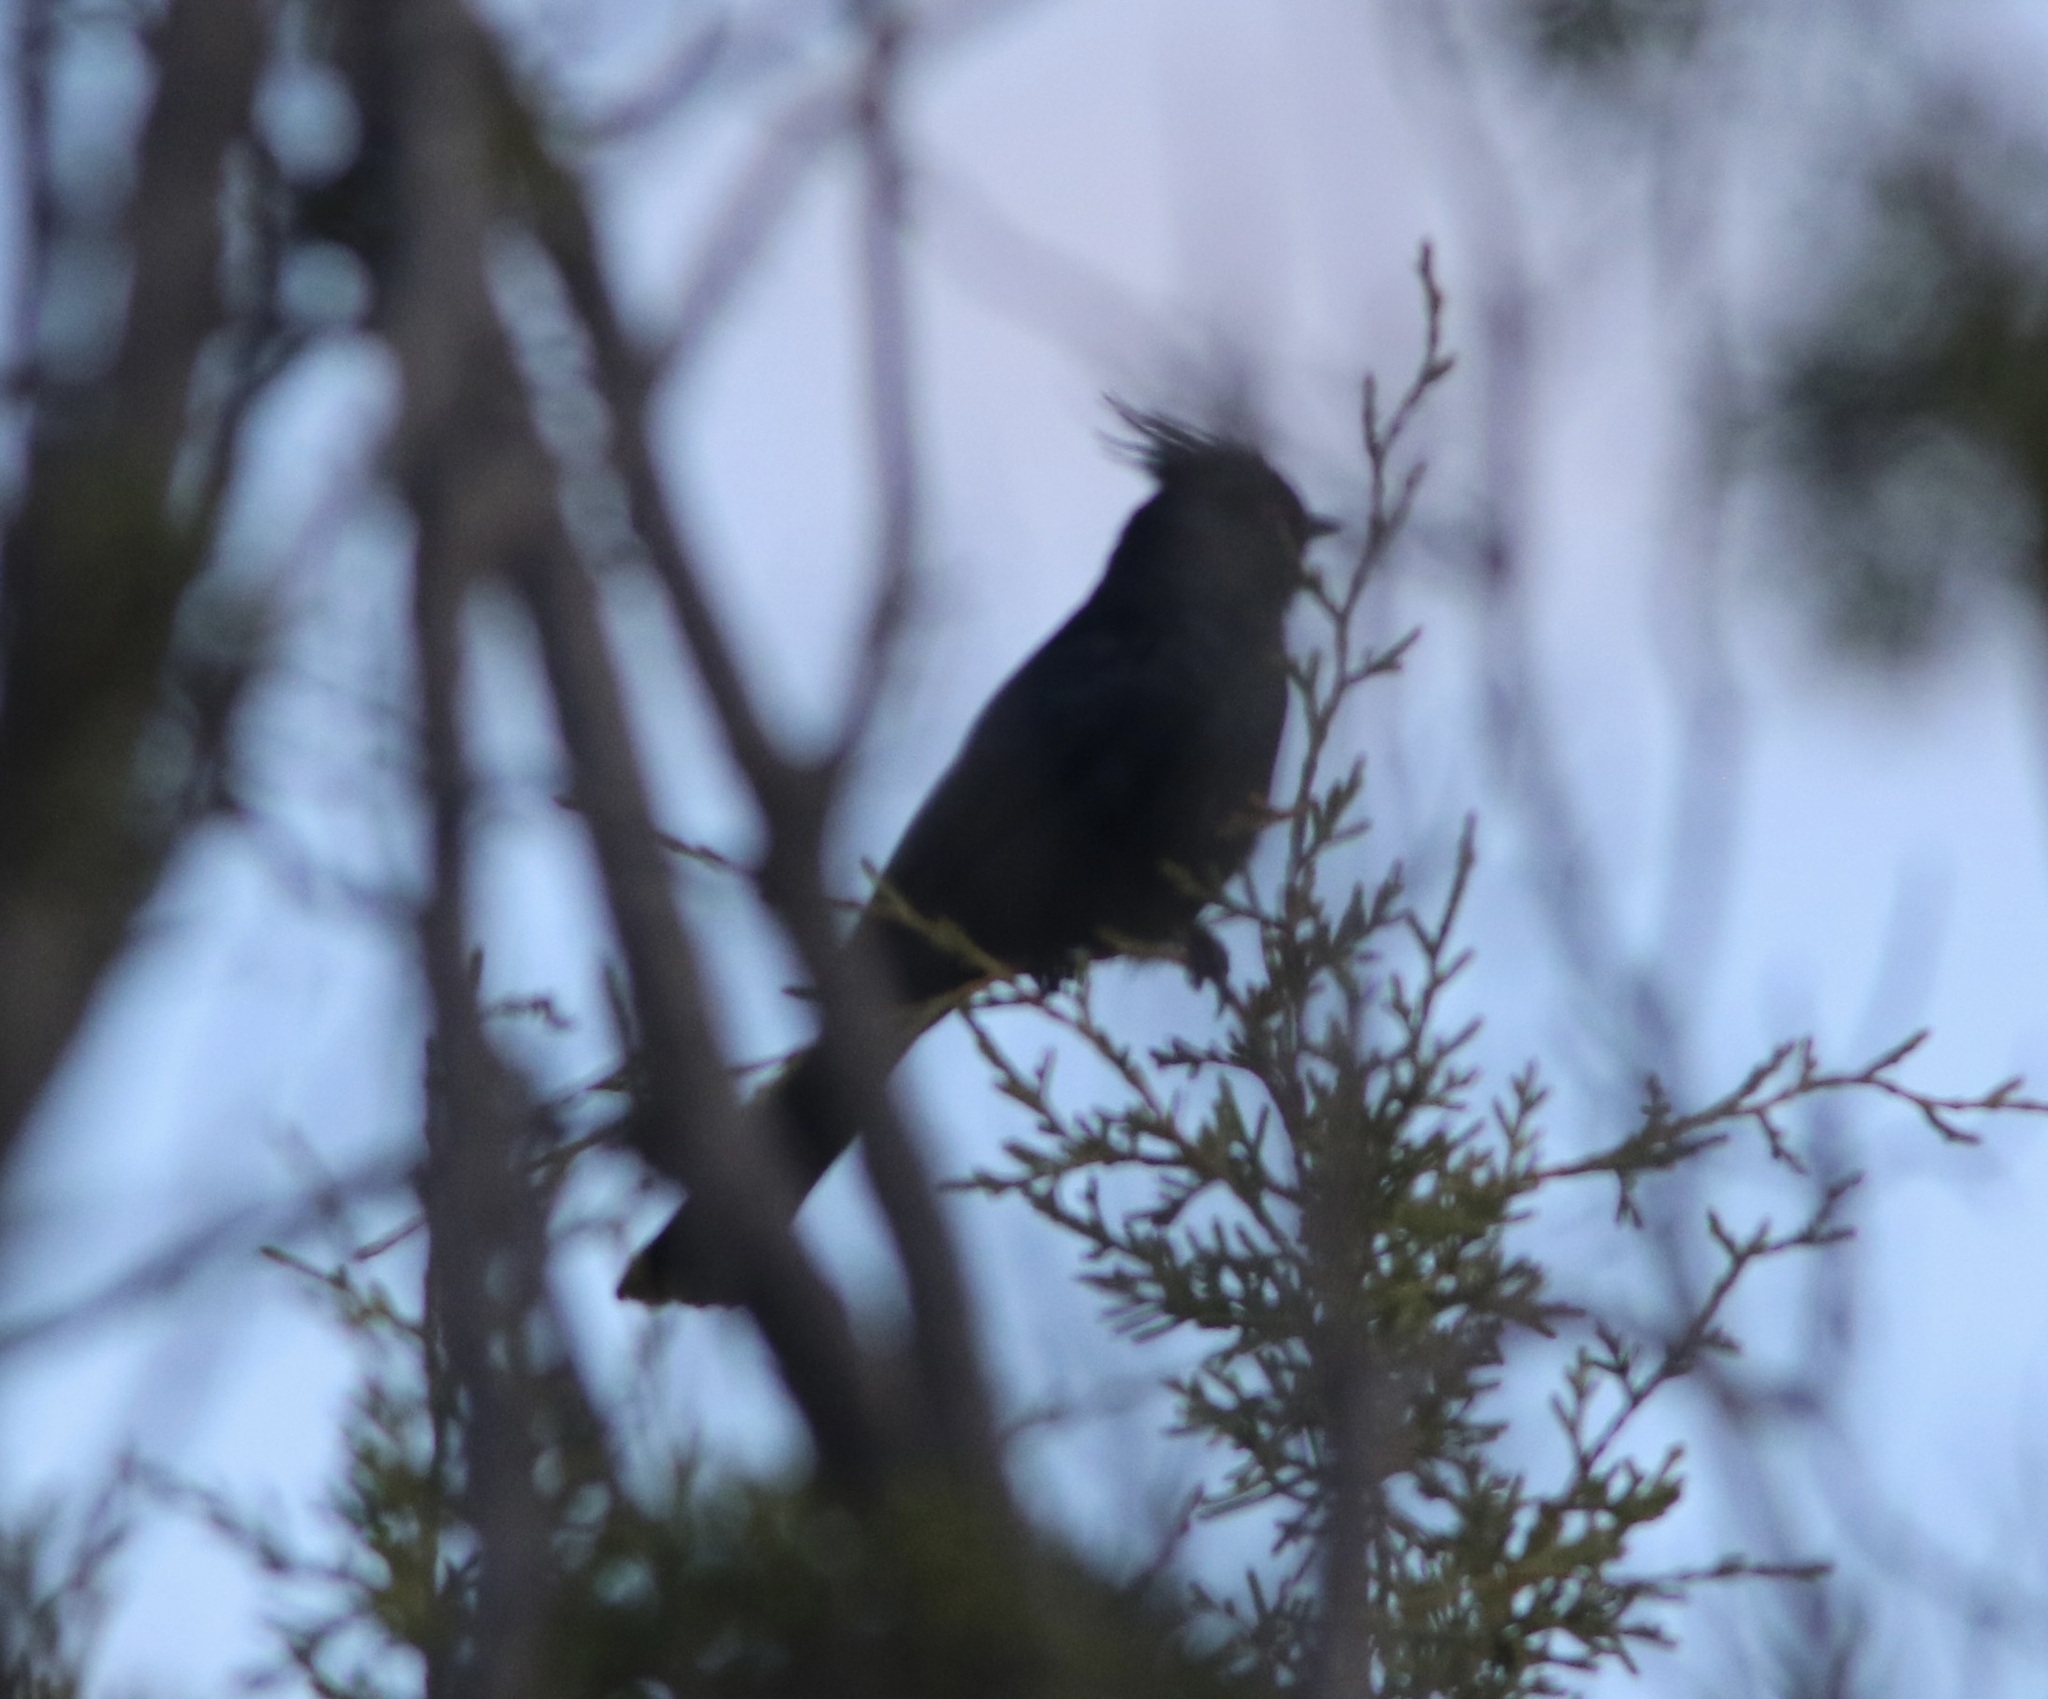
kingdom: Animalia
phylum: Chordata
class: Aves
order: Passeriformes
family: Ptilogonatidae
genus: Phainopepla
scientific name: Phainopepla nitens
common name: Phainopepla
